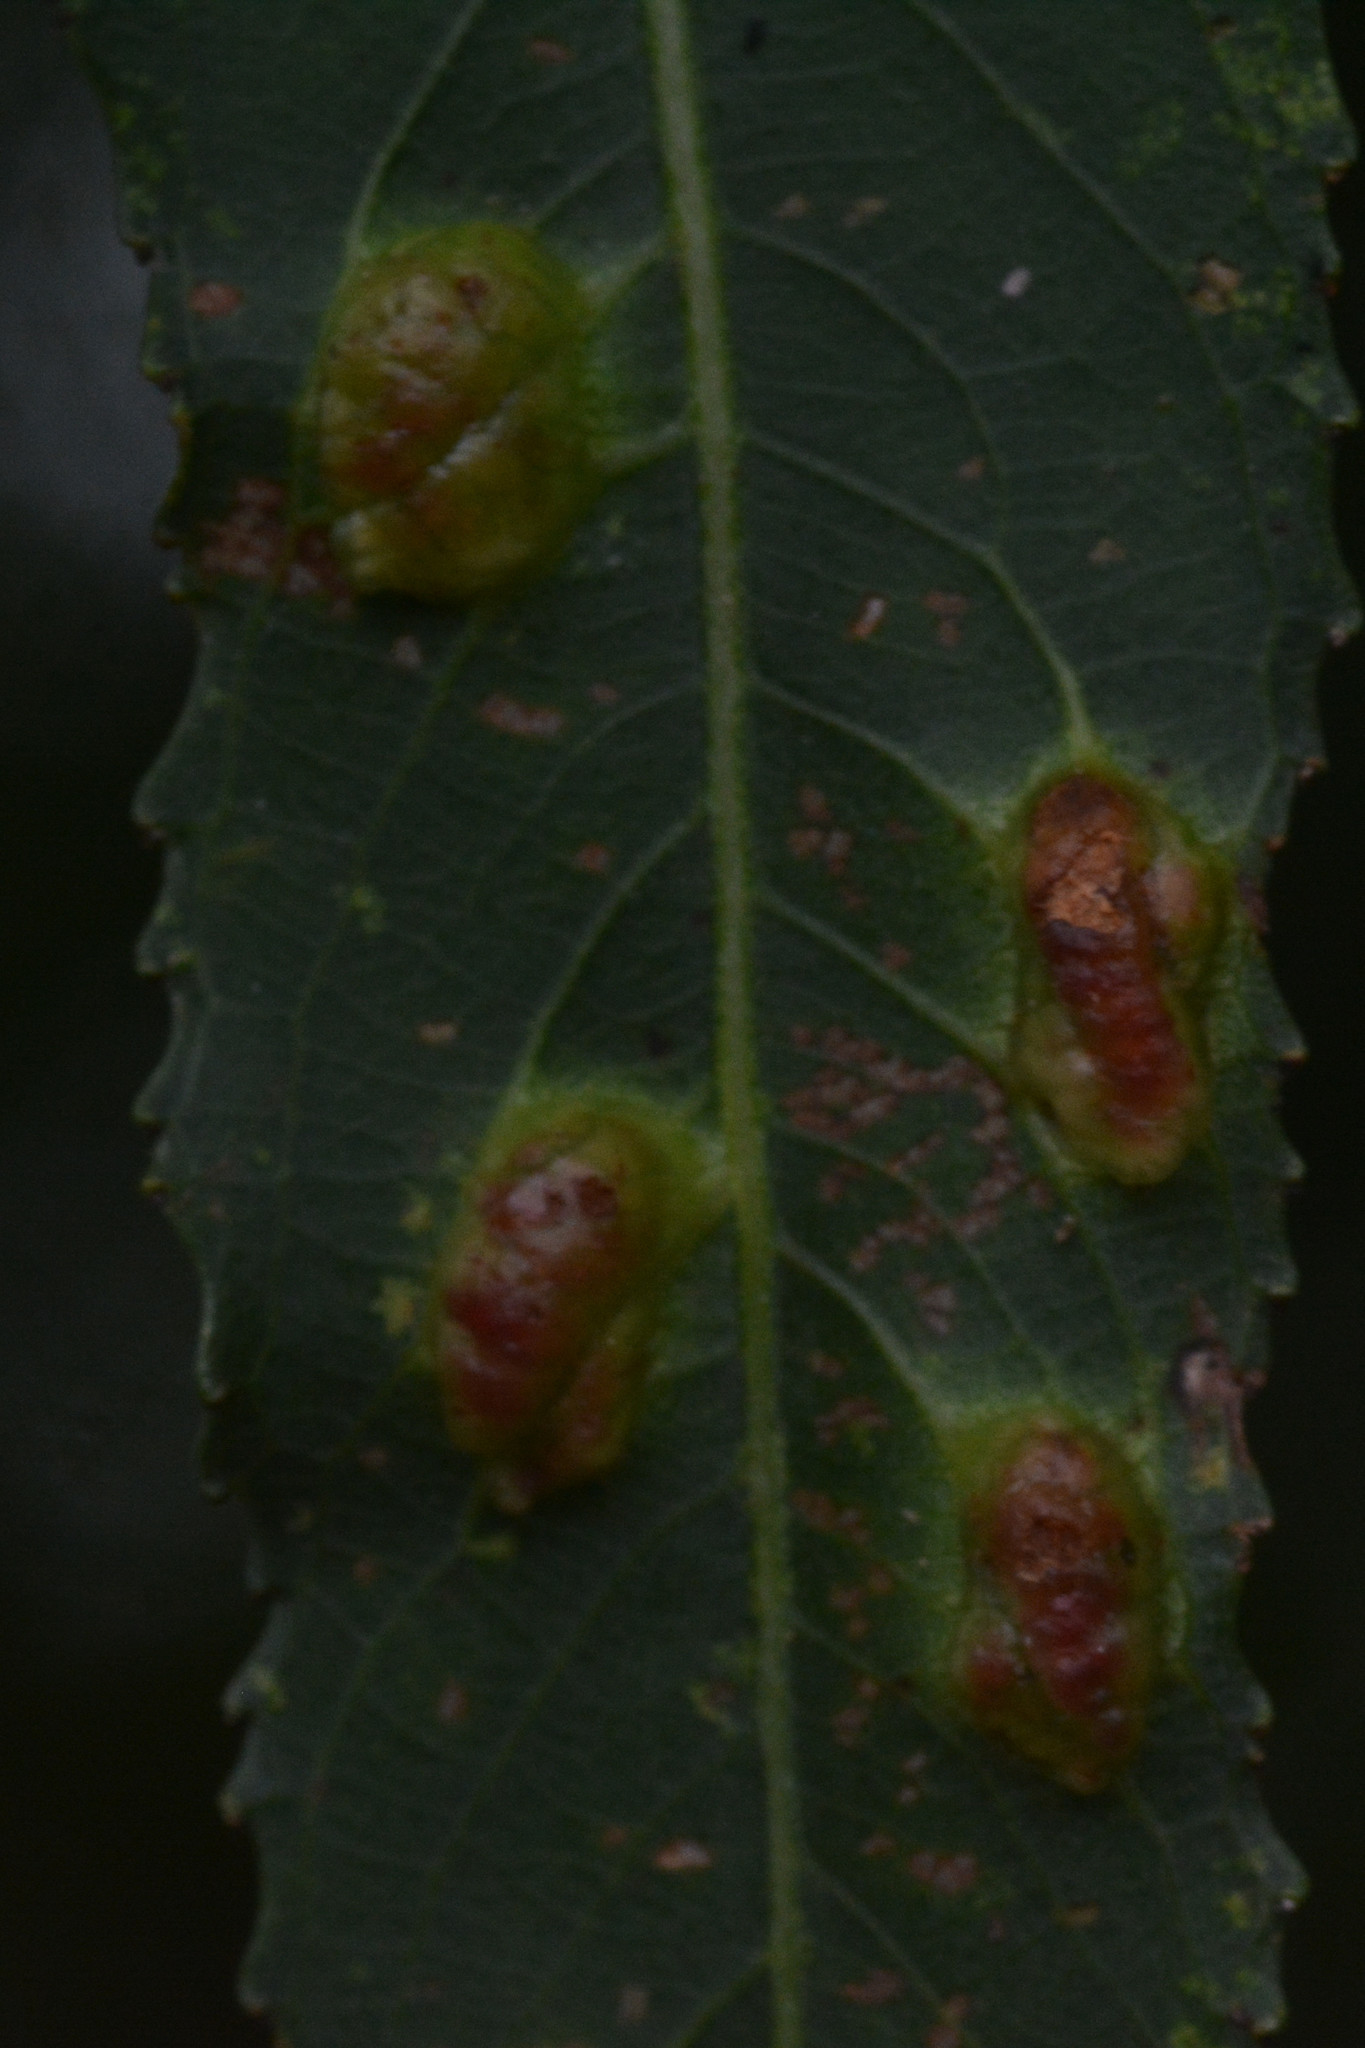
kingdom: Animalia
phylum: Arthropoda
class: Insecta
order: Hymenoptera
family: Tenthredinidae
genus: Pontania
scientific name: Pontania proxima
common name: Common sawfly
